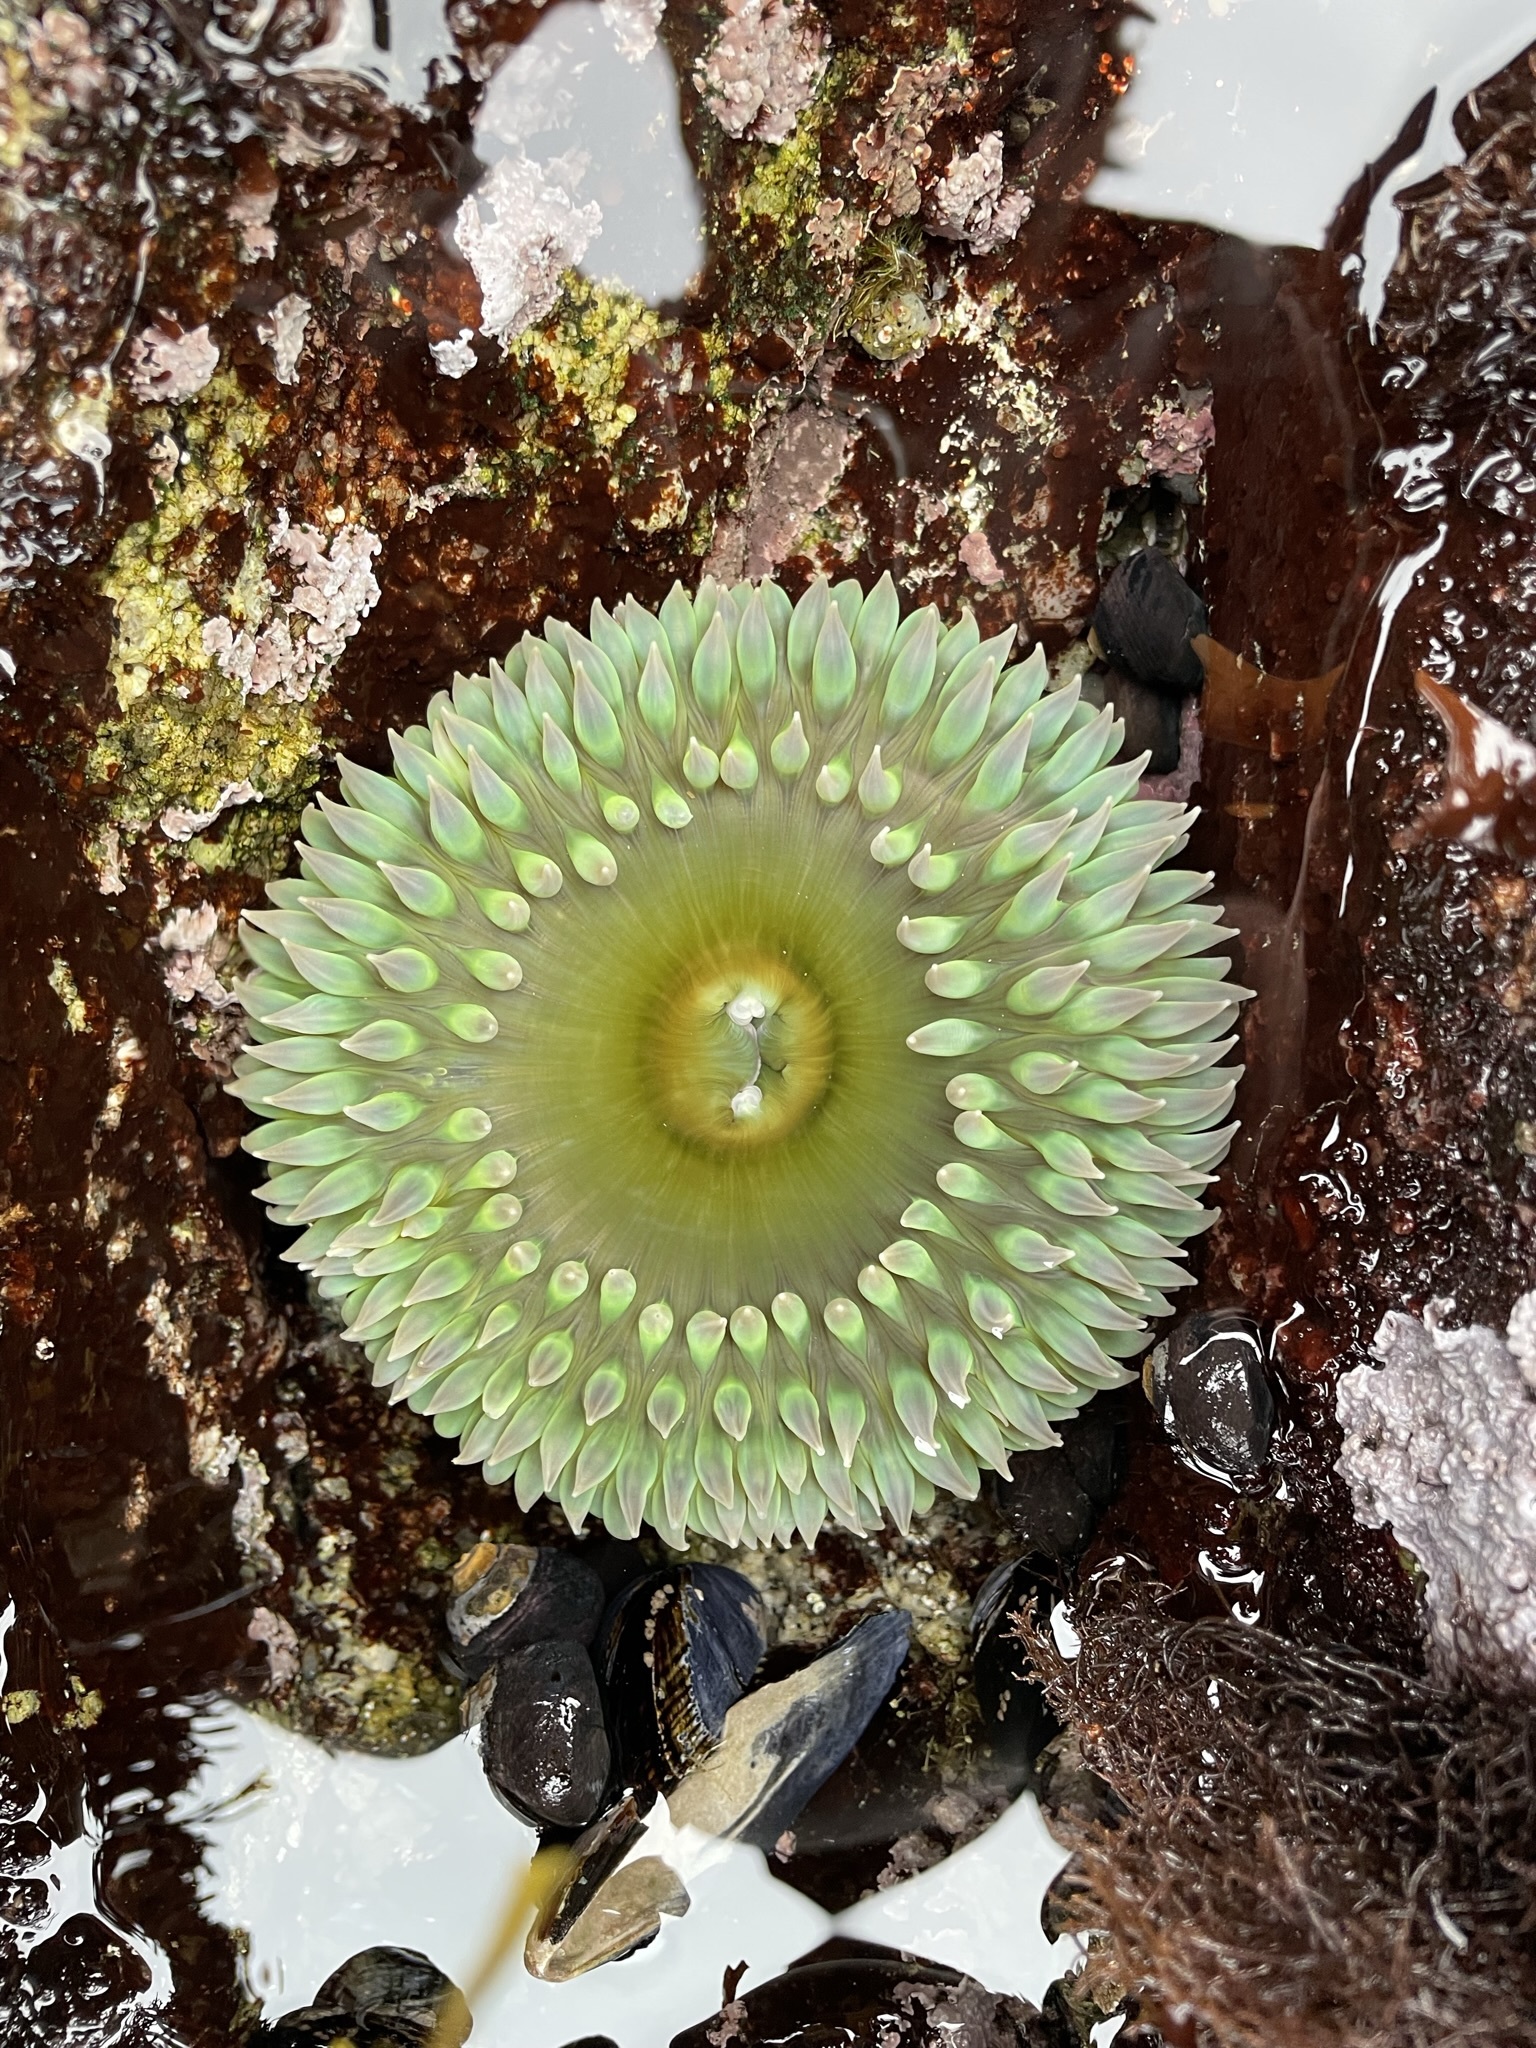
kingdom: Animalia
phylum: Cnidaria
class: Anthozoa
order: Actiniaria
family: Actiniidae
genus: Anthopleura
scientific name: Anthopleura xanthogrammica
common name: Giant green anemone
